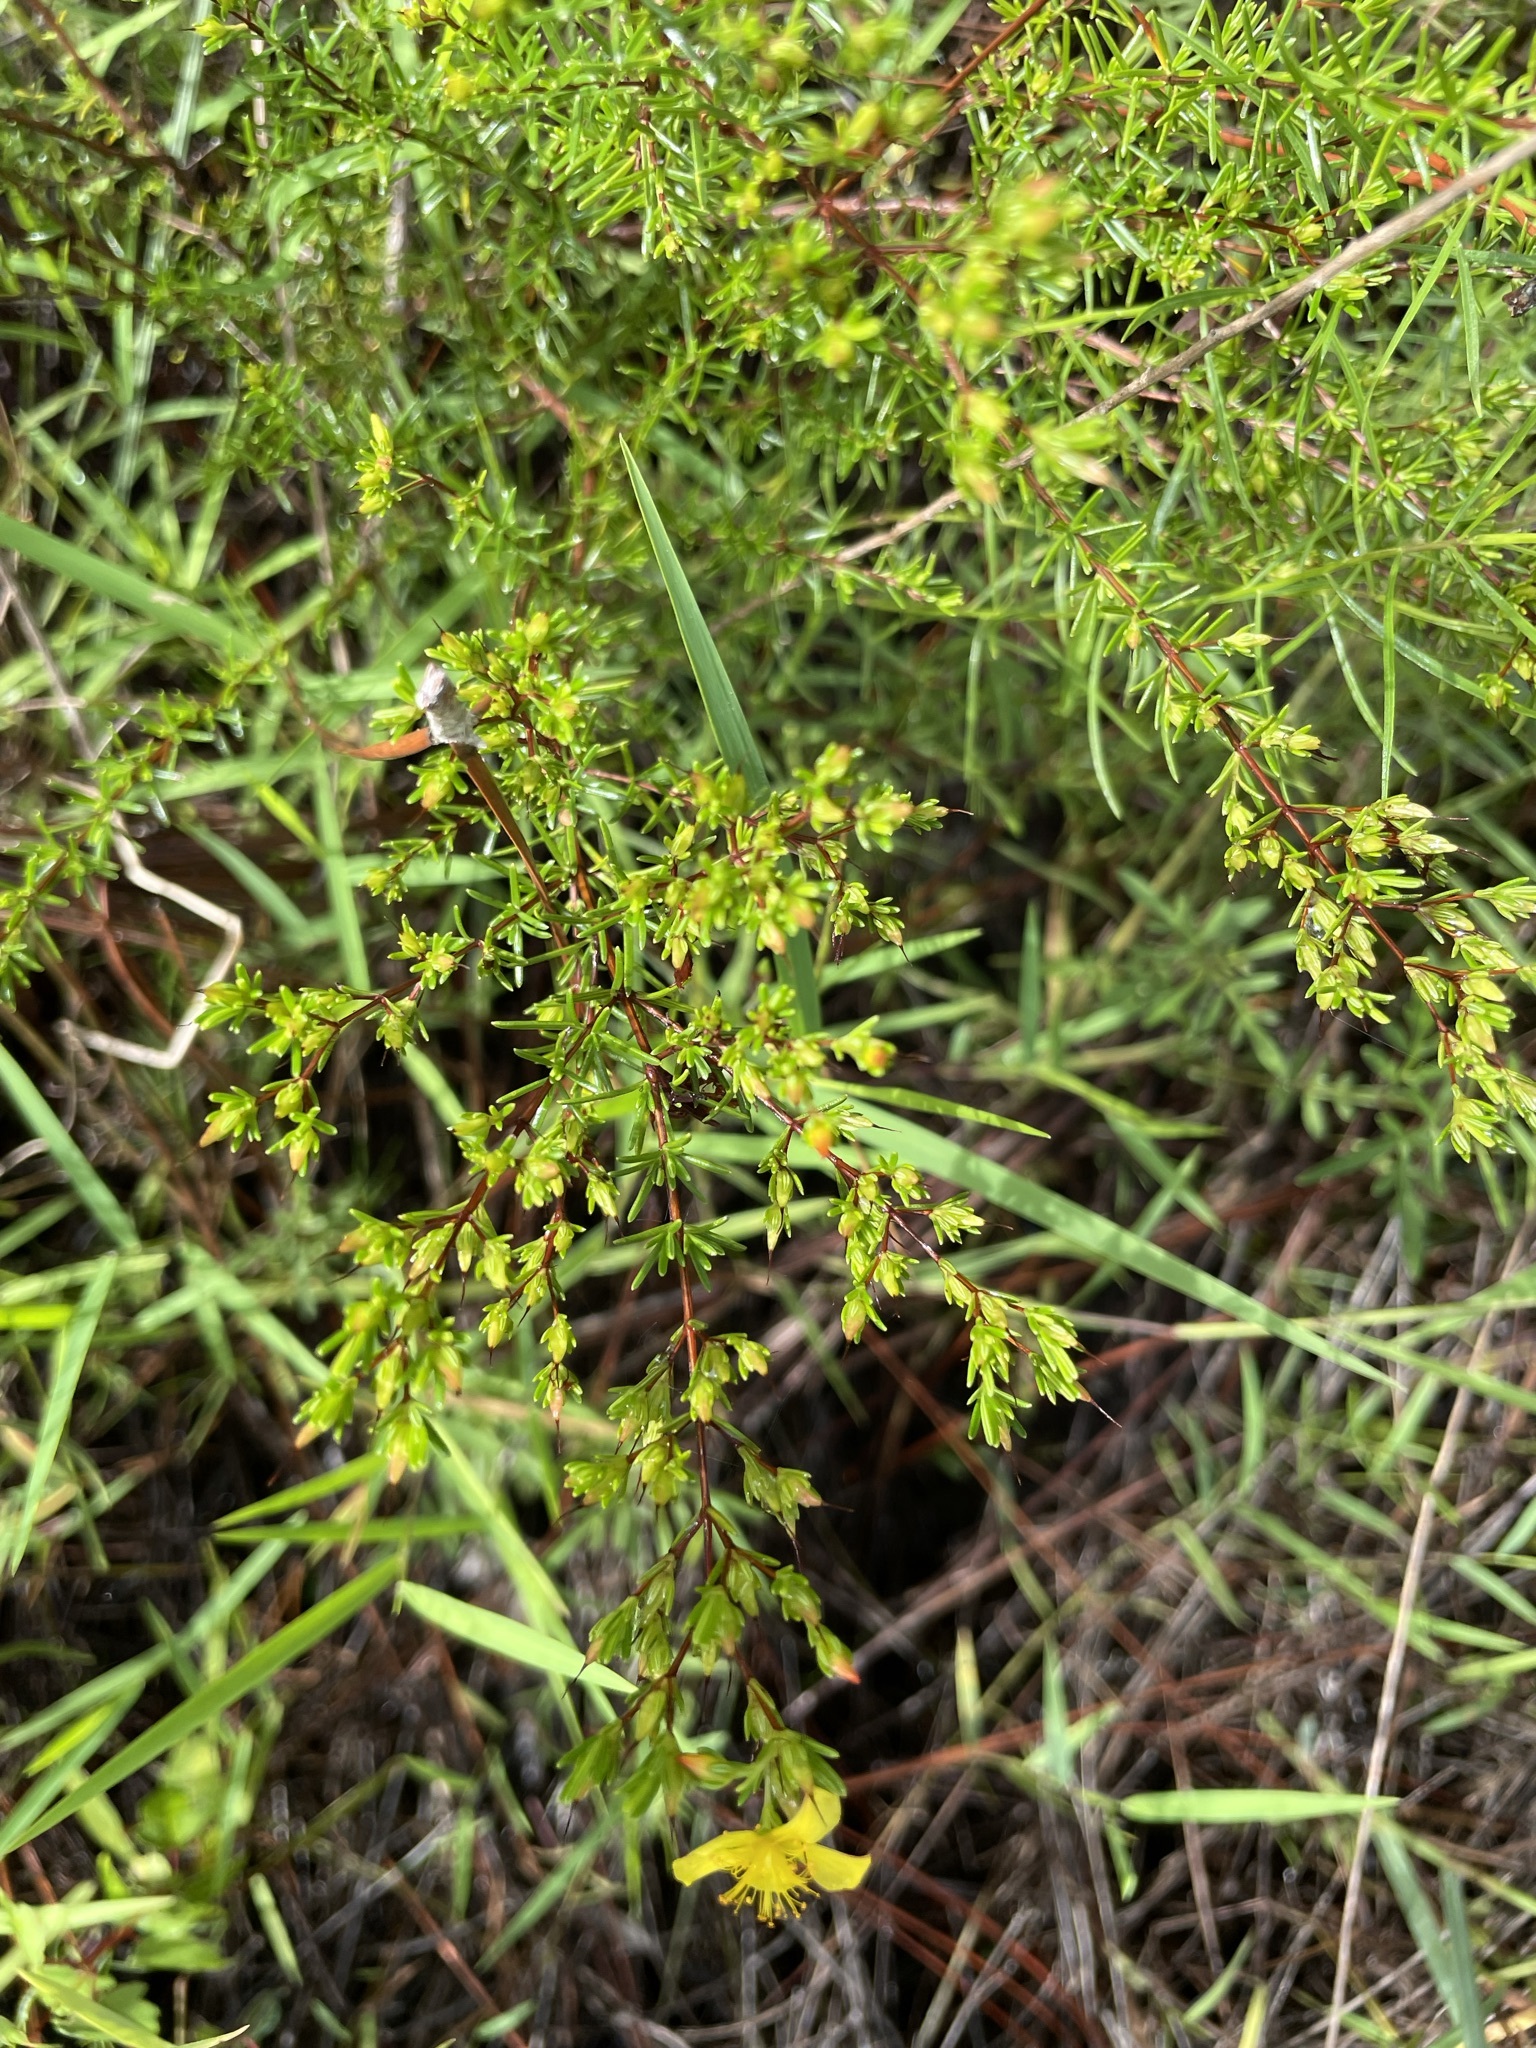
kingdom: Plantae
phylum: Tracheophyta
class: Magnoliopsida
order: Malpighiales
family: Hypericaceae
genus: Hypericum
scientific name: Hypericum brachyphyllum
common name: Coastal plain st. john's-wort
